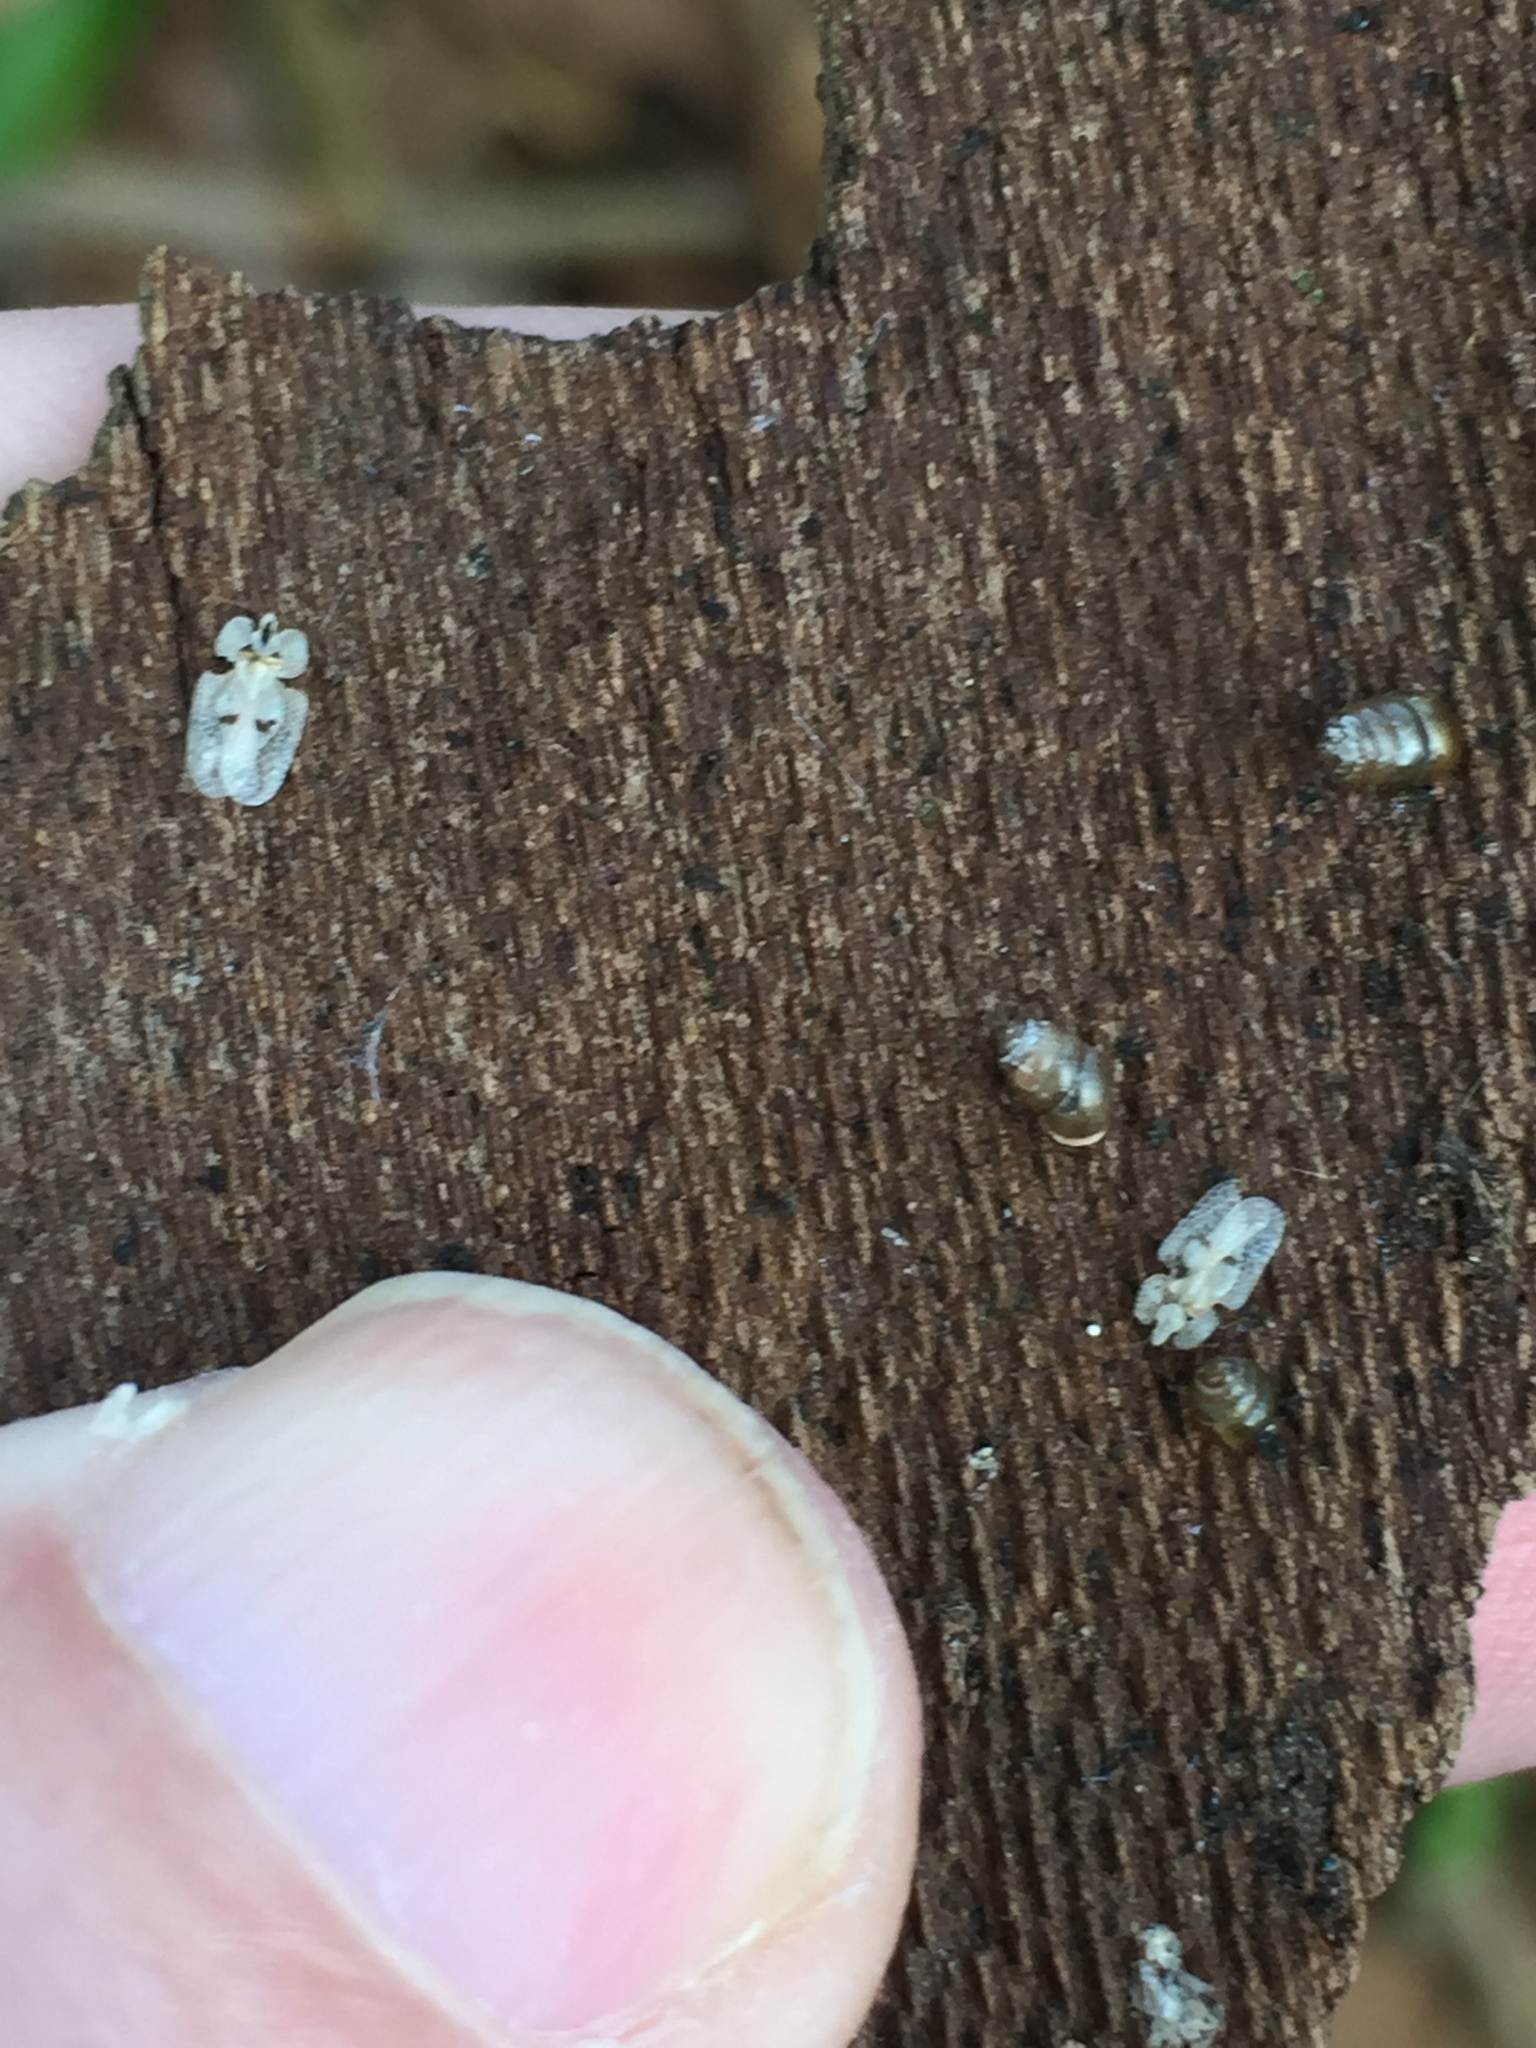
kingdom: Animalia
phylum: Arthropoda
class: Insecta
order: Hemiptera
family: Tingidae
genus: Corythucha
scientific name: Corythucha ciliata
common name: Sycamore lace bug
